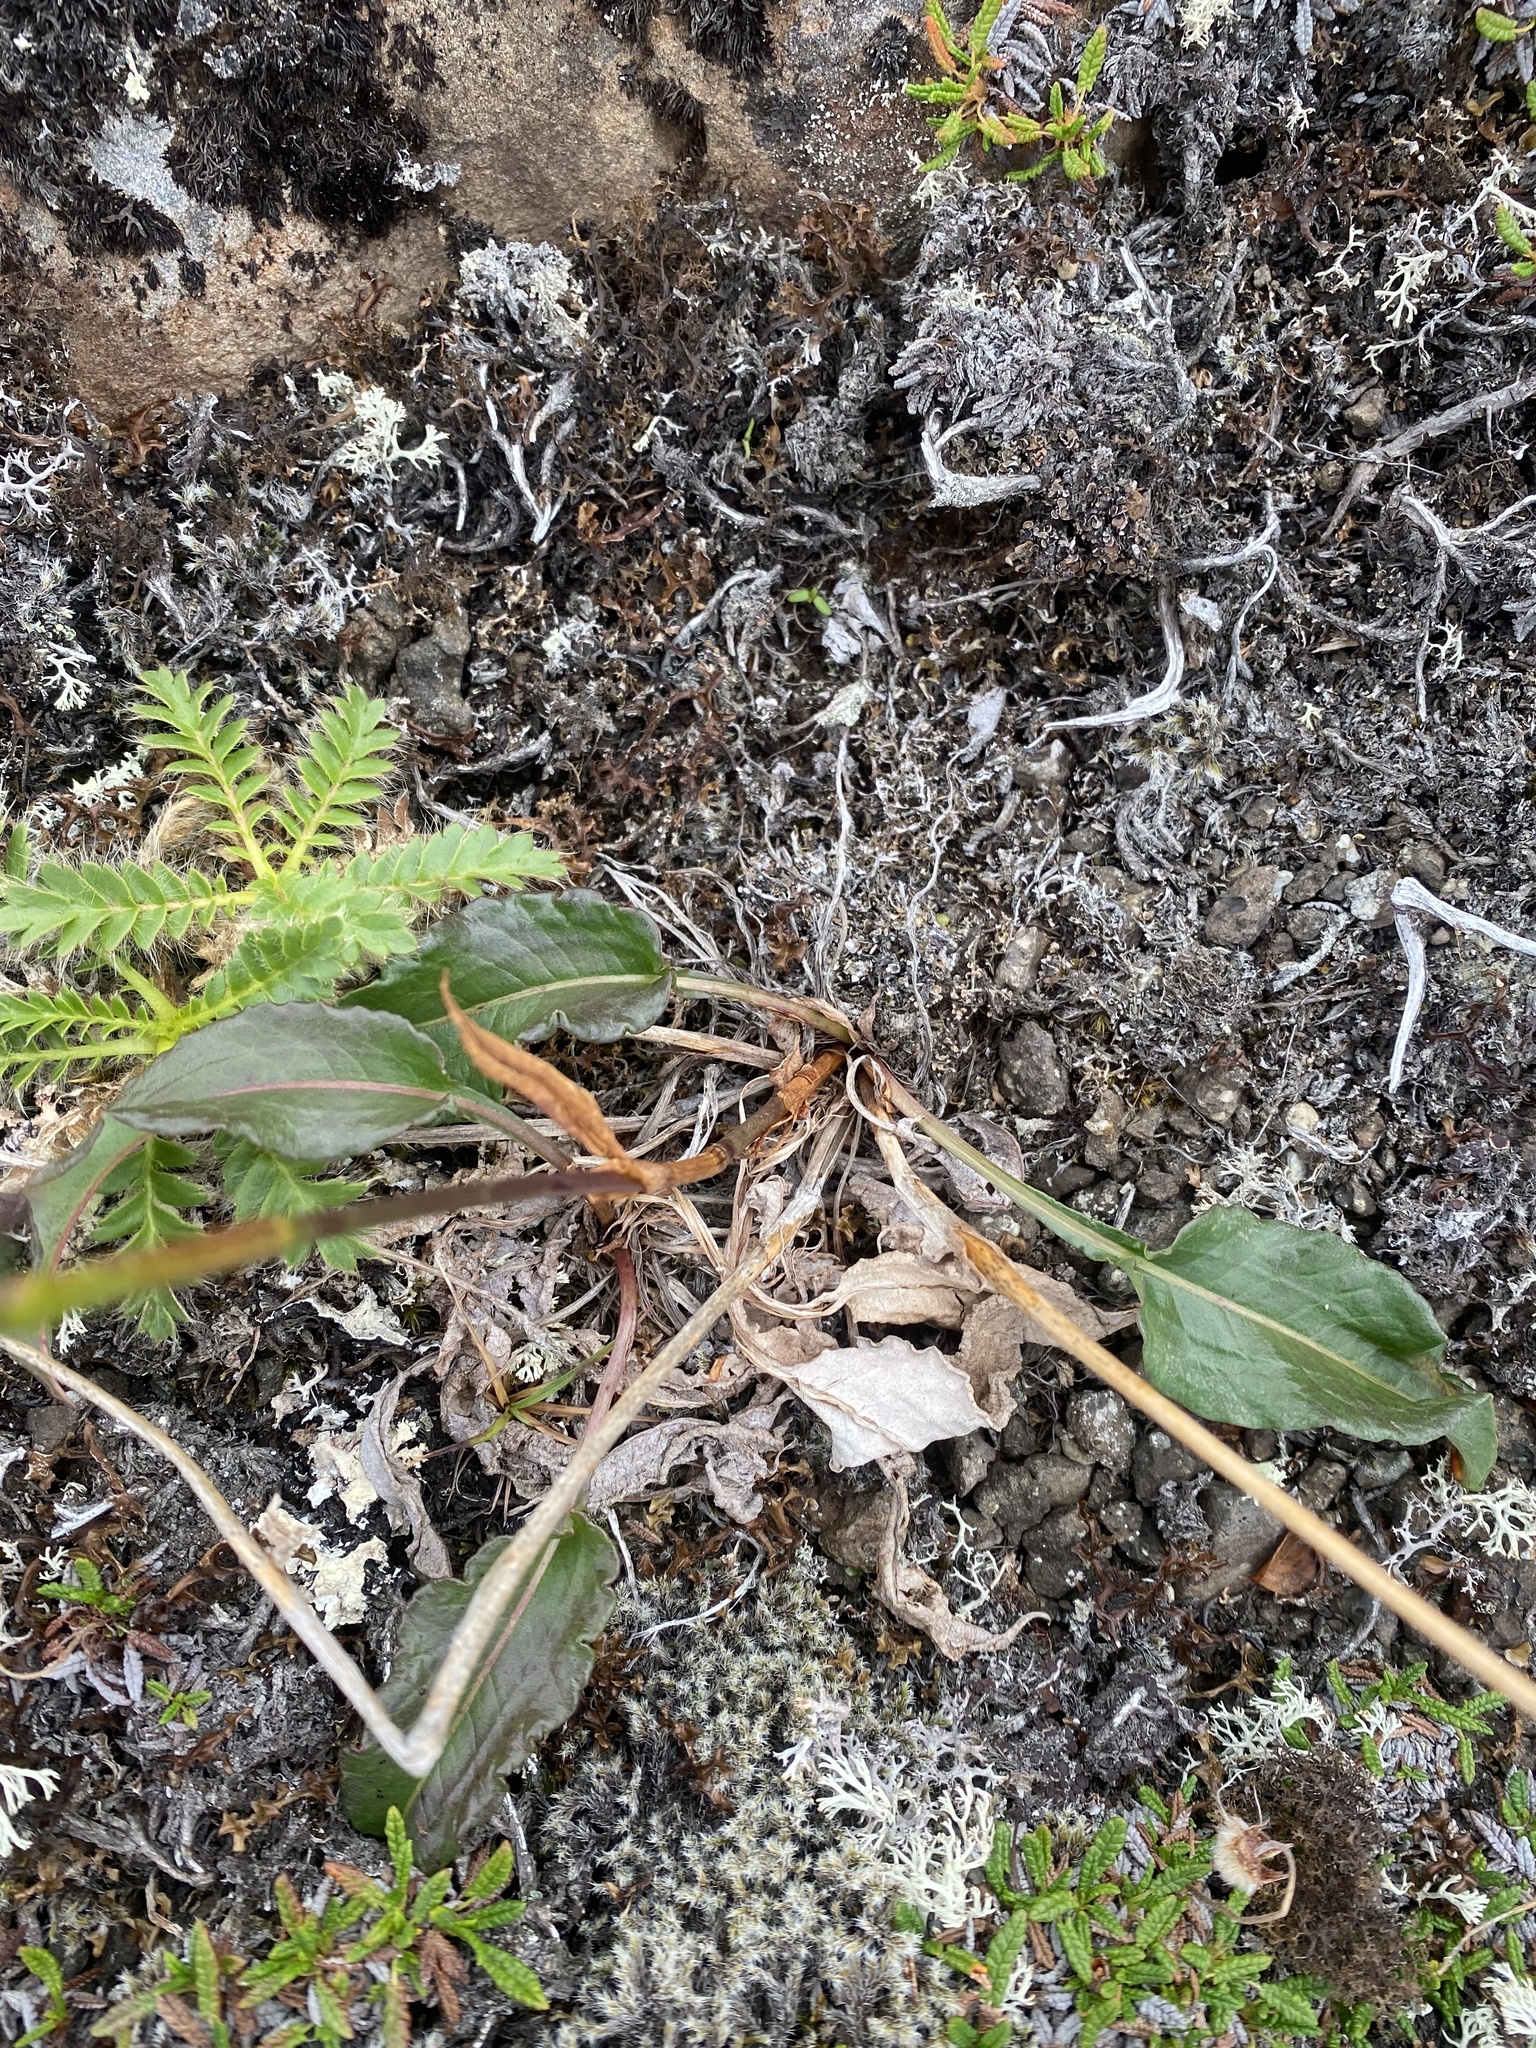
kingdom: Plantae
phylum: Tracheophyta
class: Magnoliopsida
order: Caryophyllales
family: Polygonaceae
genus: Bistorta
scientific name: Bistorta plumosa
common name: Meadow bistort
